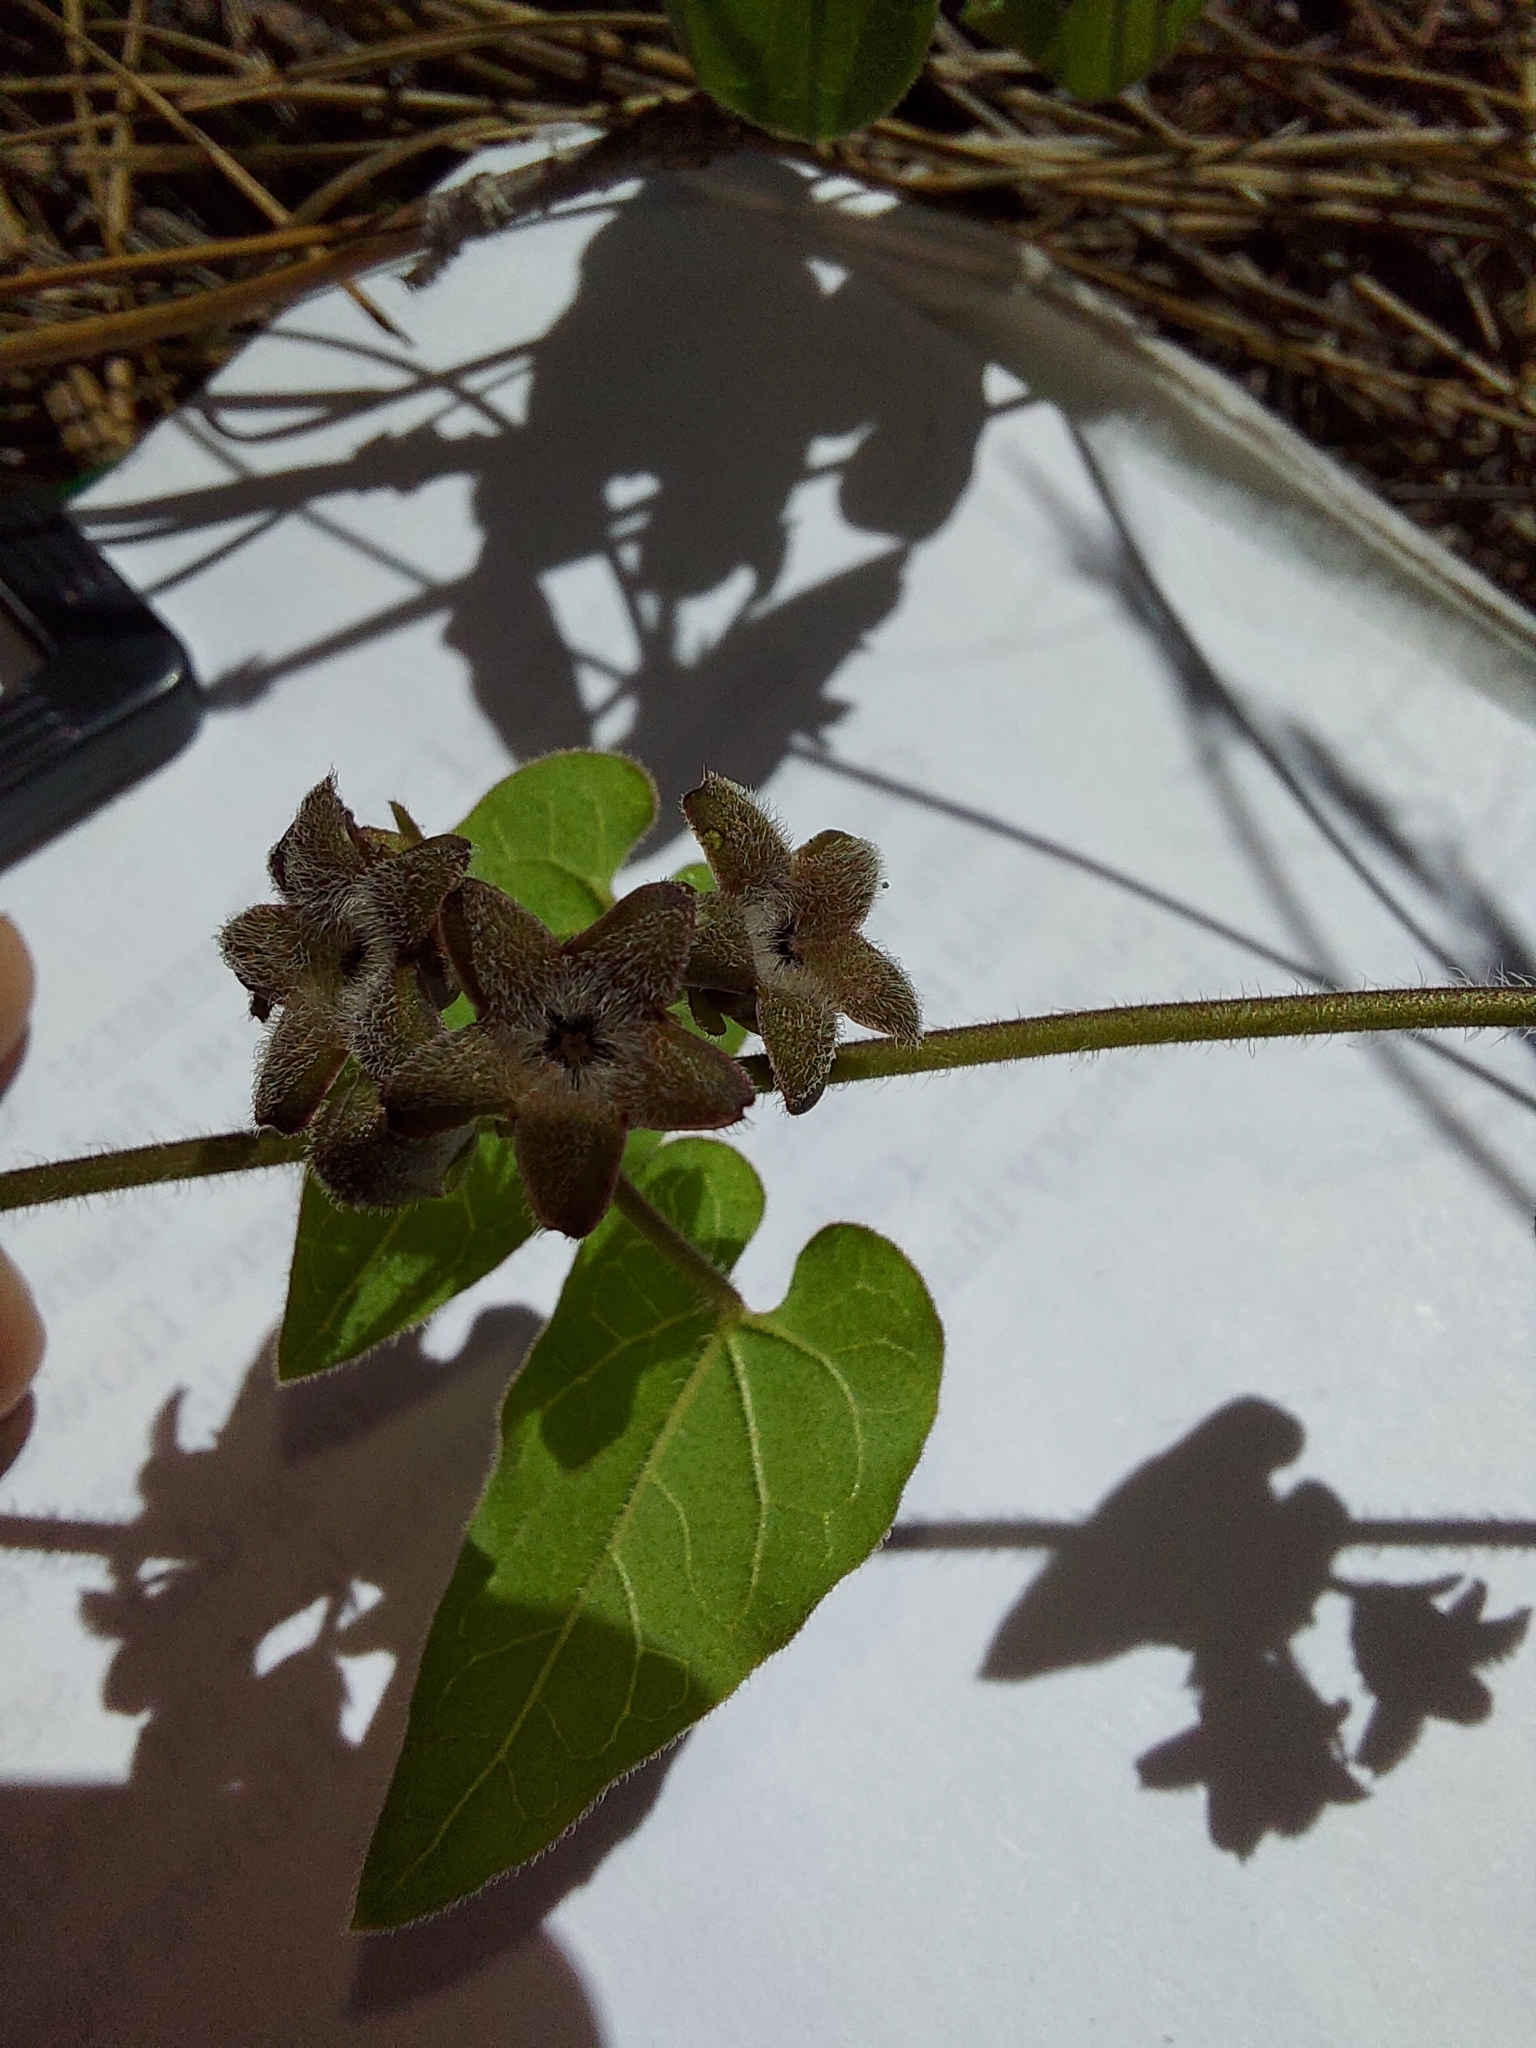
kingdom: Plantae
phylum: Tracheophyta
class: Magnoliopsida
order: Gentianales
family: Apocynaceae
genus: Chthamalia
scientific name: Chthamalia pubiflora
